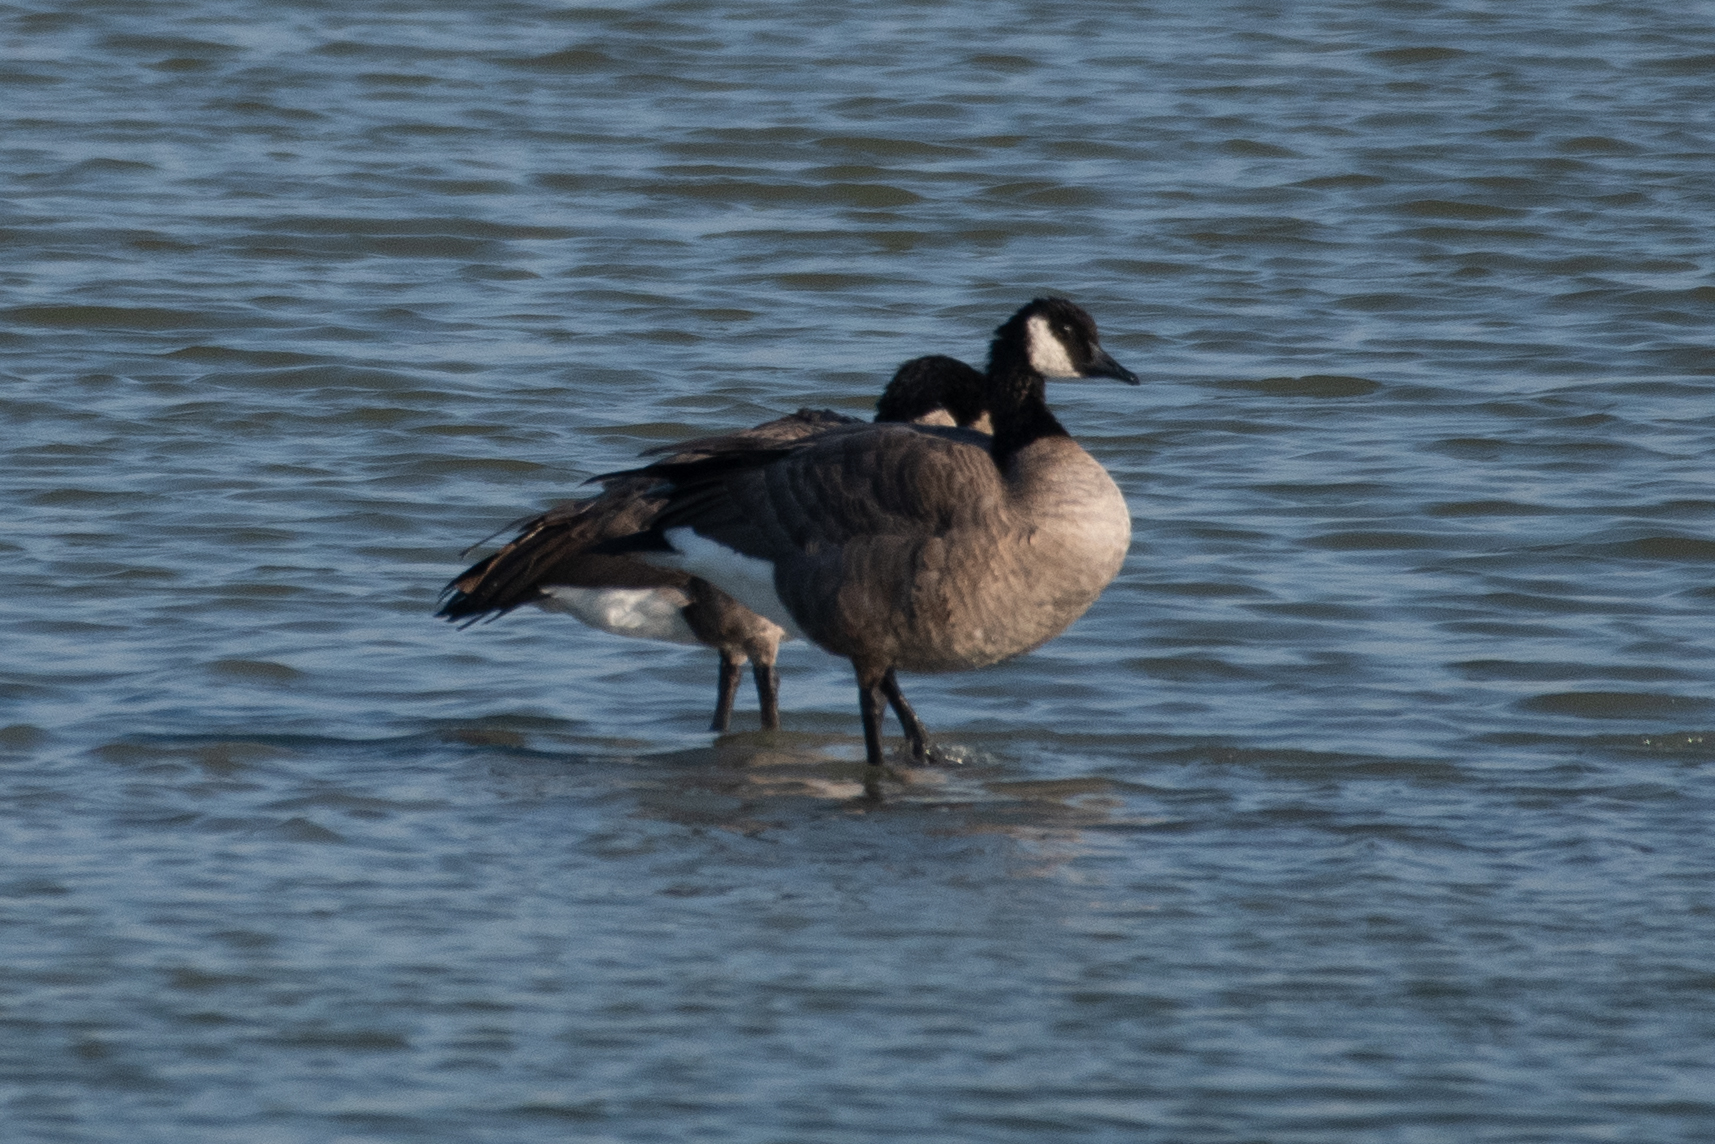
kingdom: Animalia
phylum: Chordata
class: Aves
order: Anseriformes
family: Anatidae
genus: Branta
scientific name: Branta canadensis
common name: Canada goose
